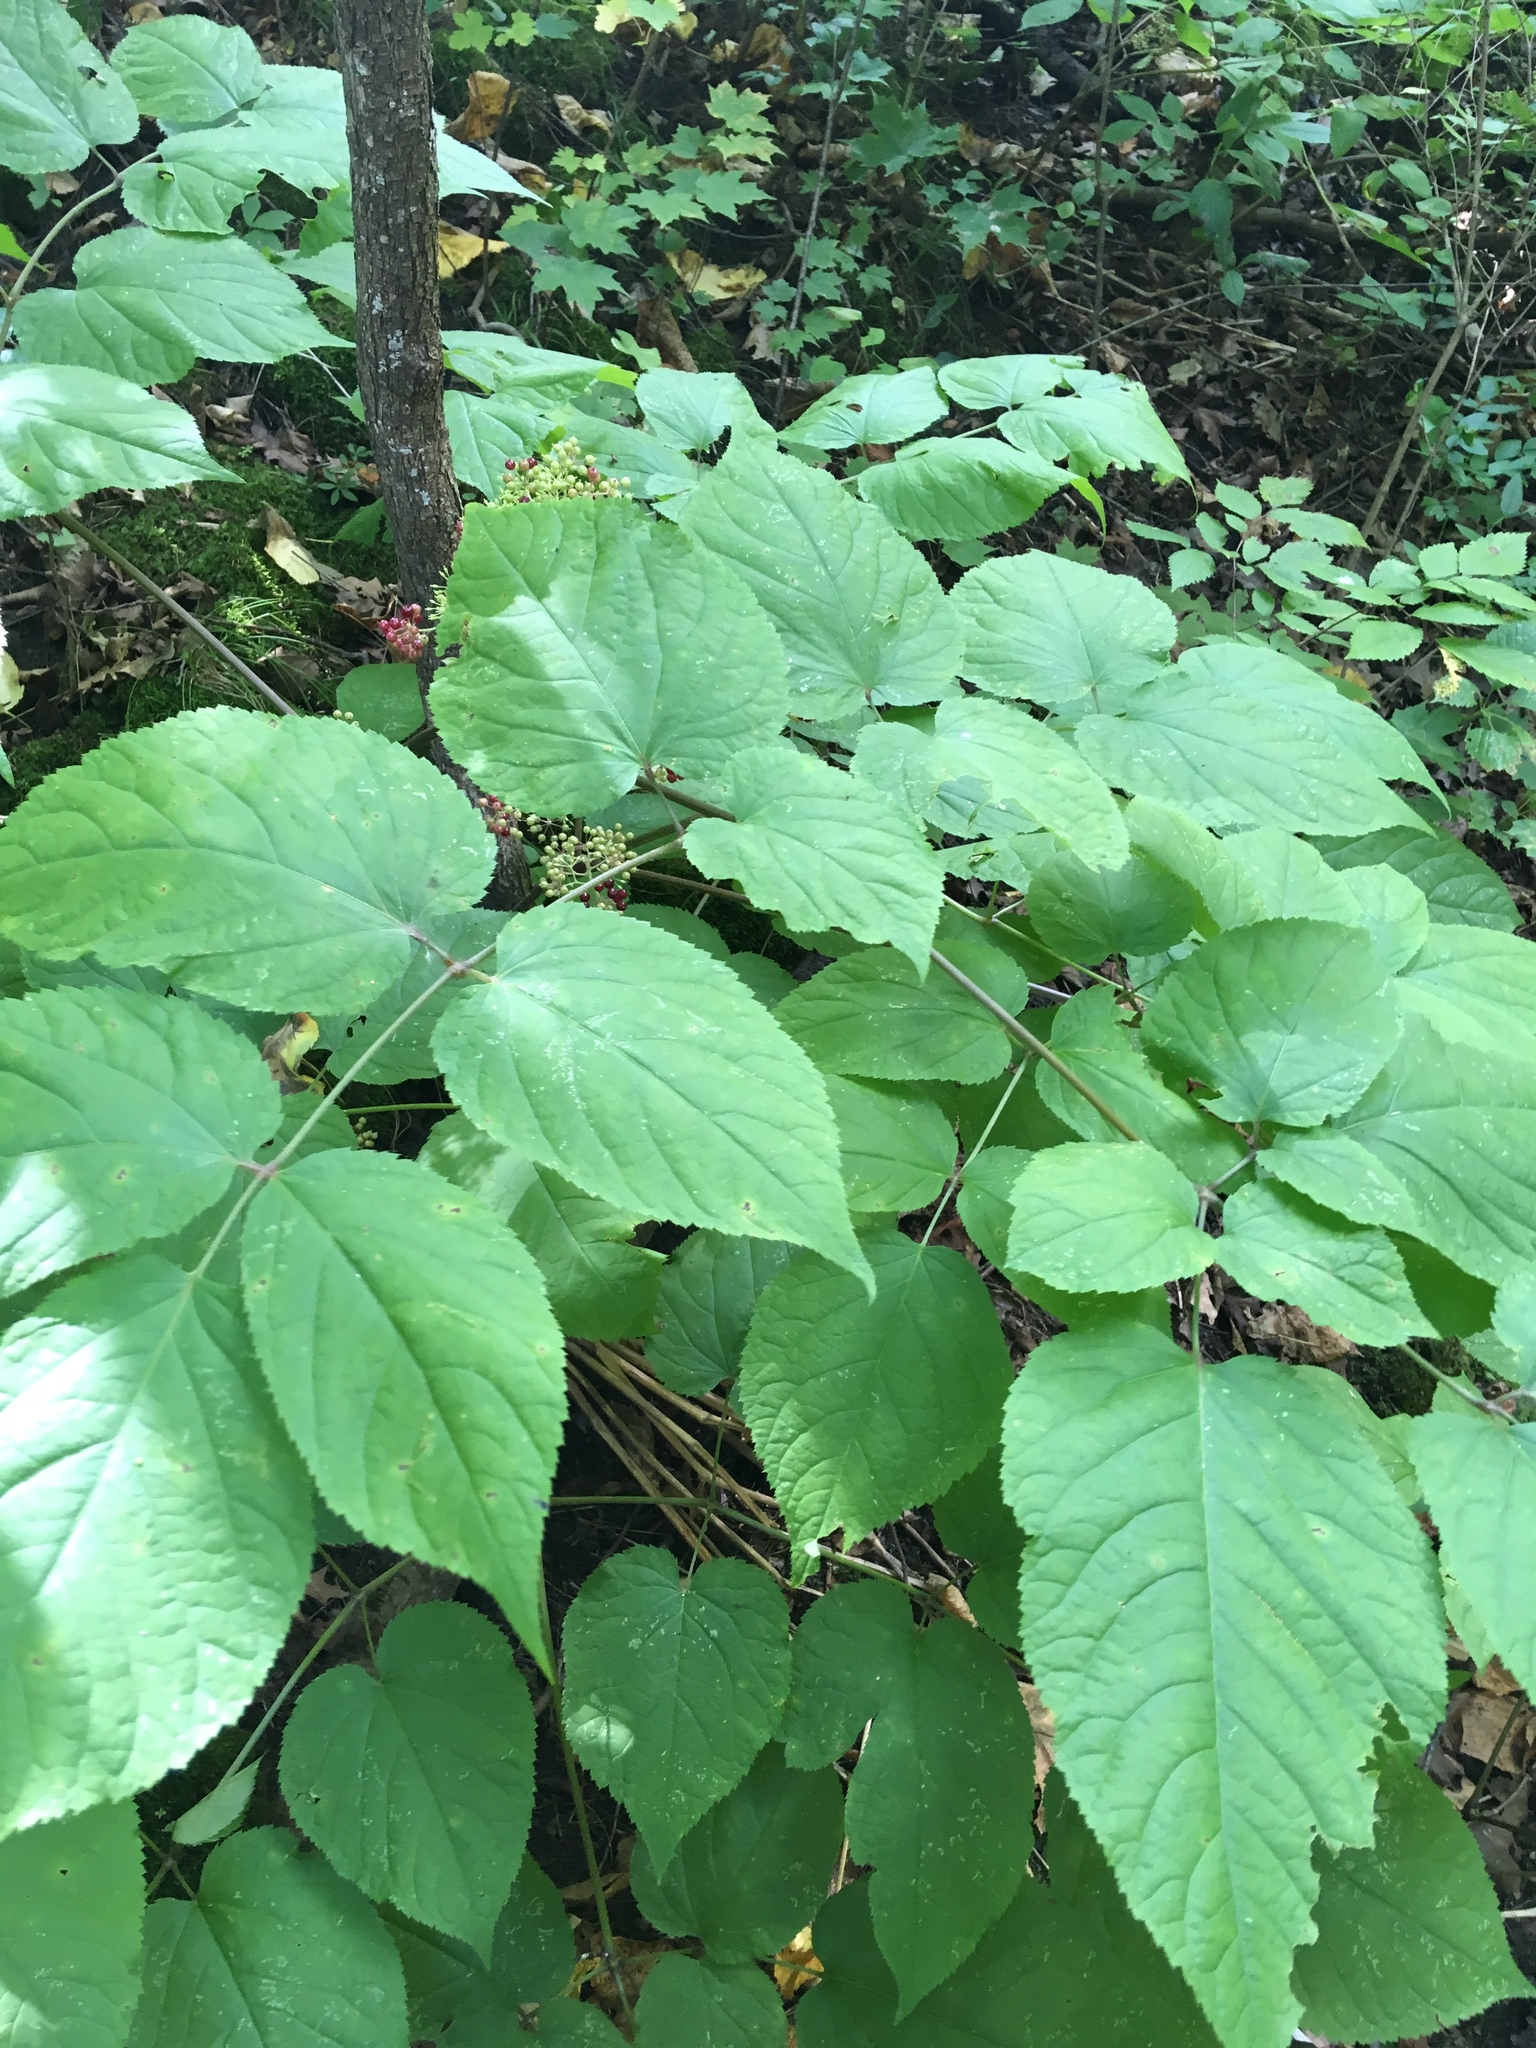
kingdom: Plantae
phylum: Tracheophyta
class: Magnoliopsida
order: Apiales
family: Araliaceae
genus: Aralia
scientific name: Aralia racemosa
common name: American-spikenard
